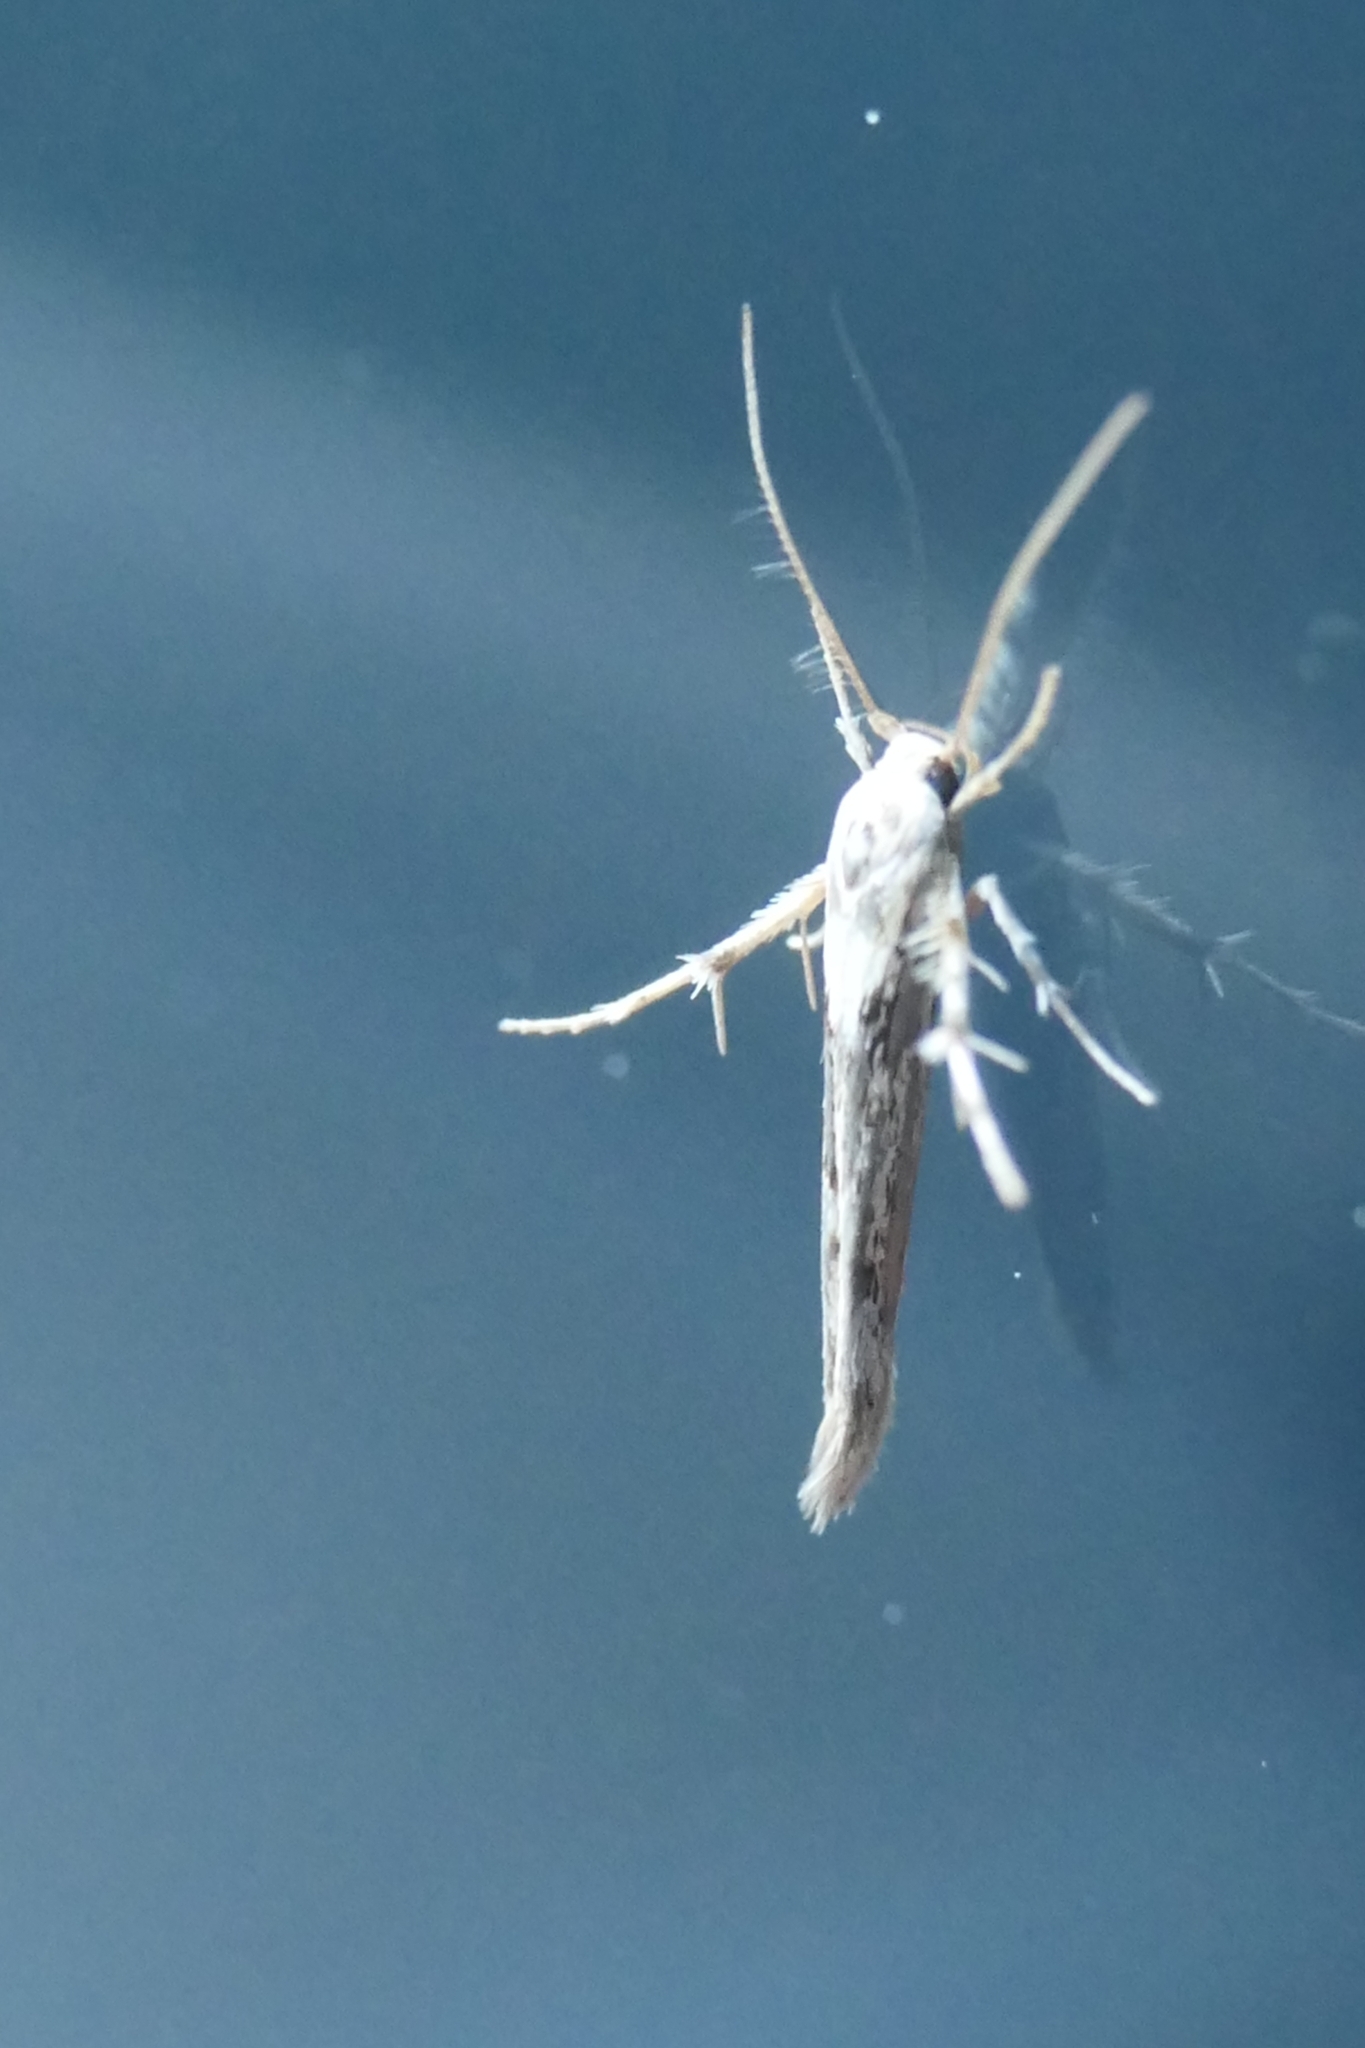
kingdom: Animalia
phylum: Arthropoda
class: Insecta
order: Lepidoptera
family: Stathmopodidae
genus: Stathmopoda
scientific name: Stathmopoda plumbiflua
